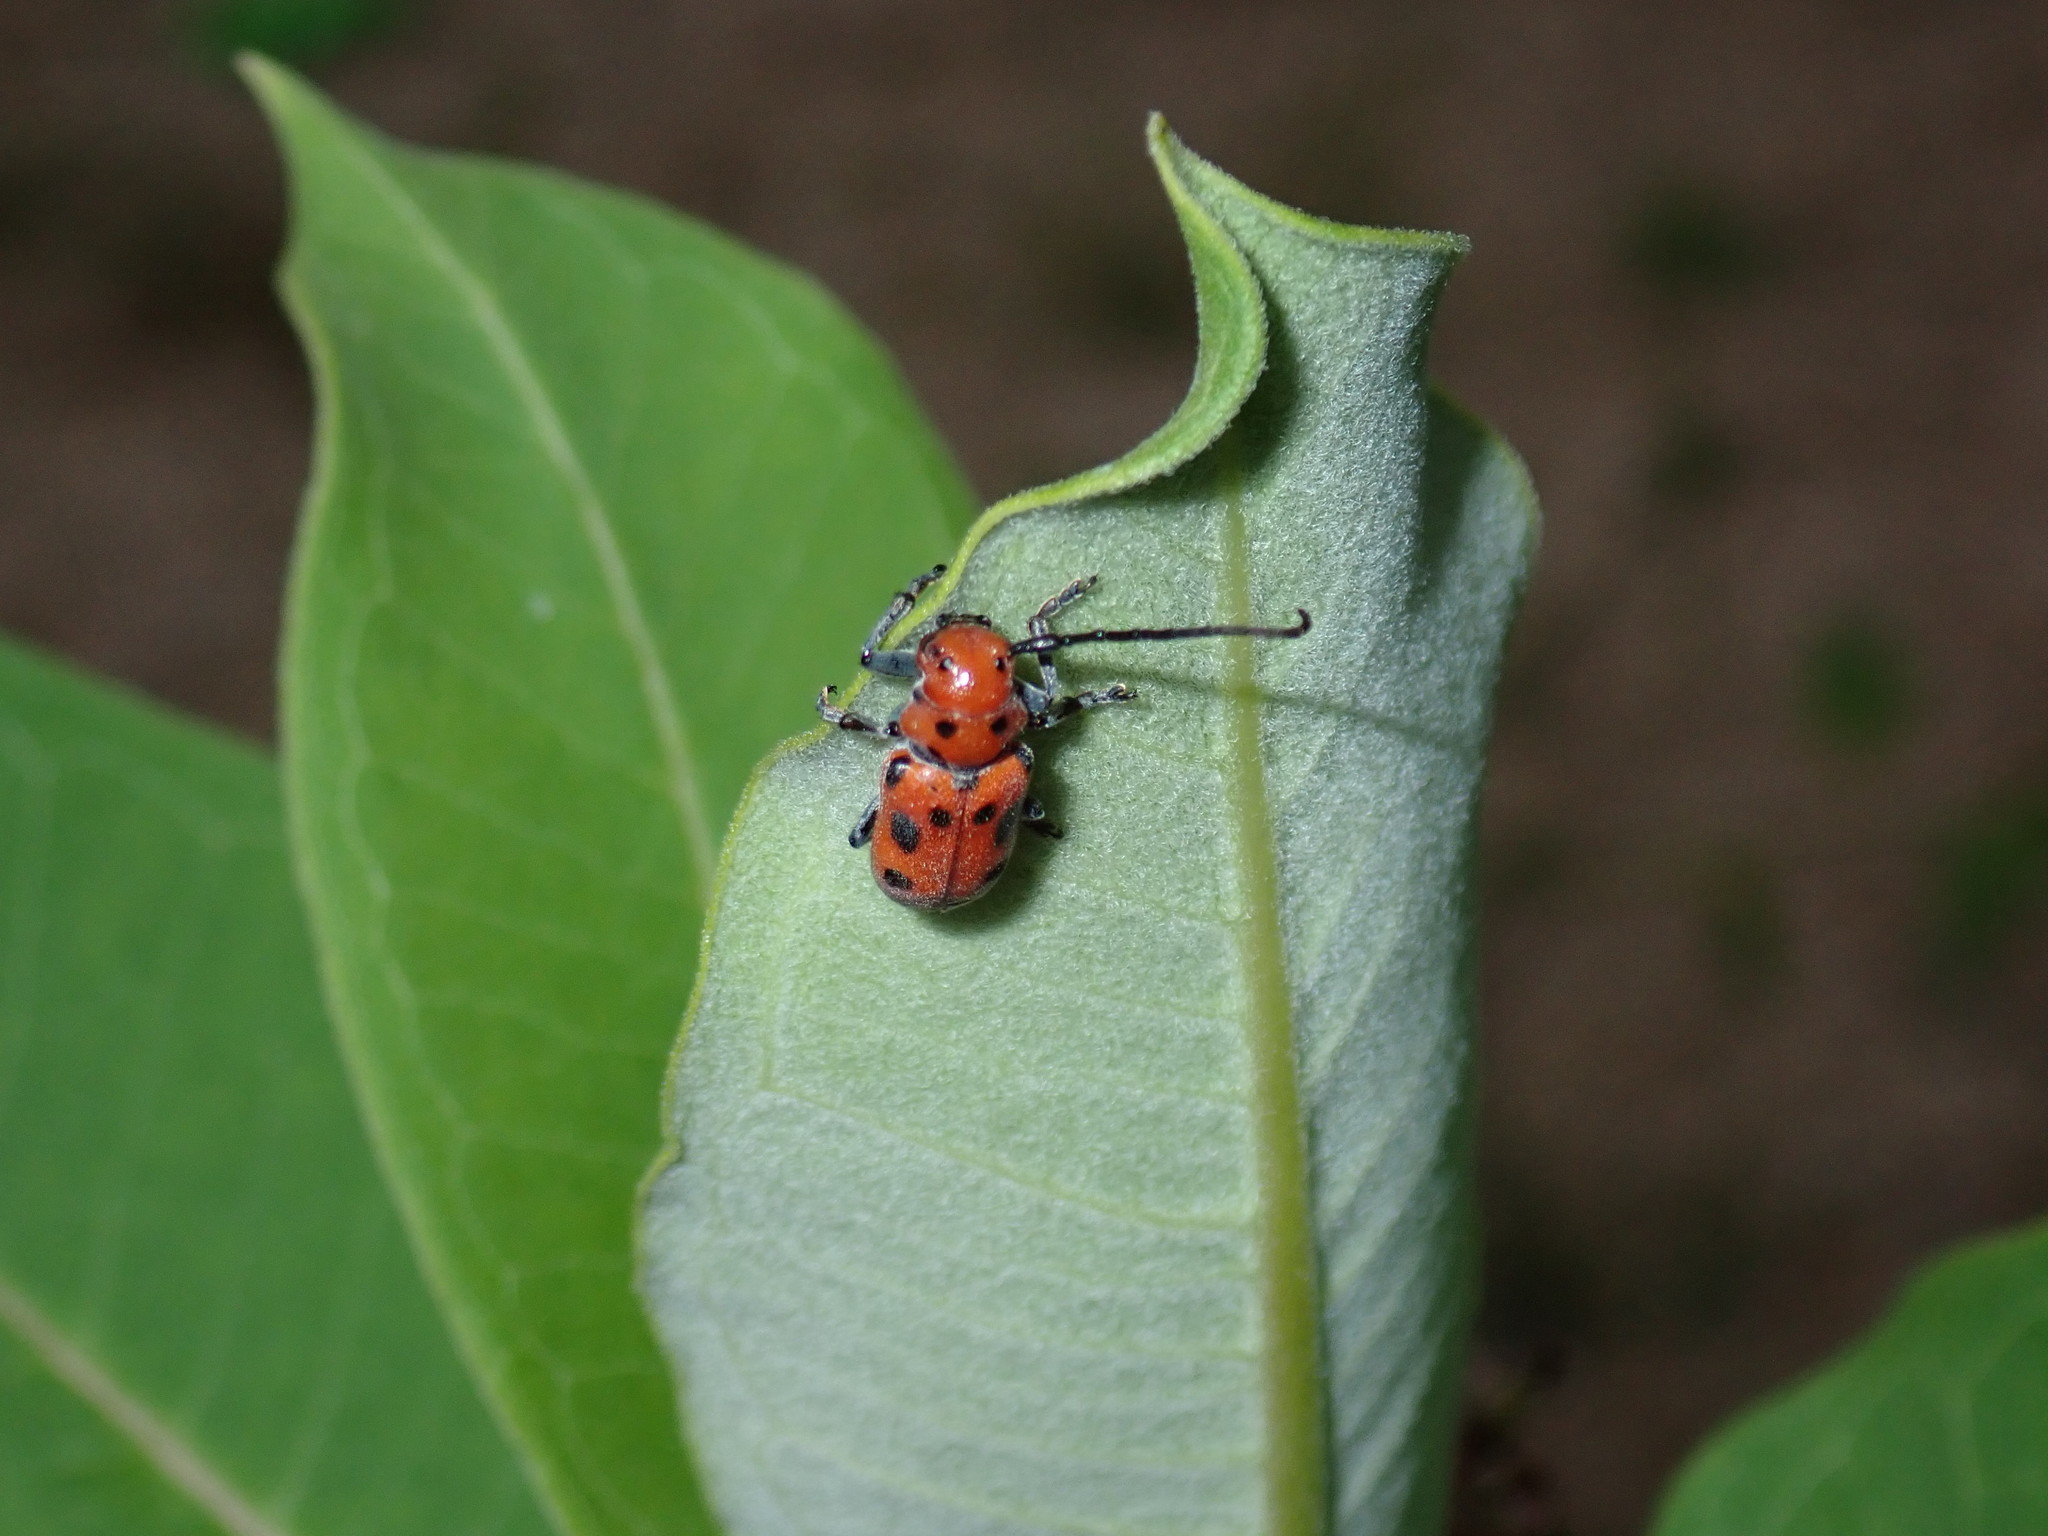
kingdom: Animalia
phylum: Arthropoda
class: Insecta
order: Coleoptera
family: Cerambycidae
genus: Tetraopes
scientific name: Tetraopes tetrophthalmus
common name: Red milkweed beetle
